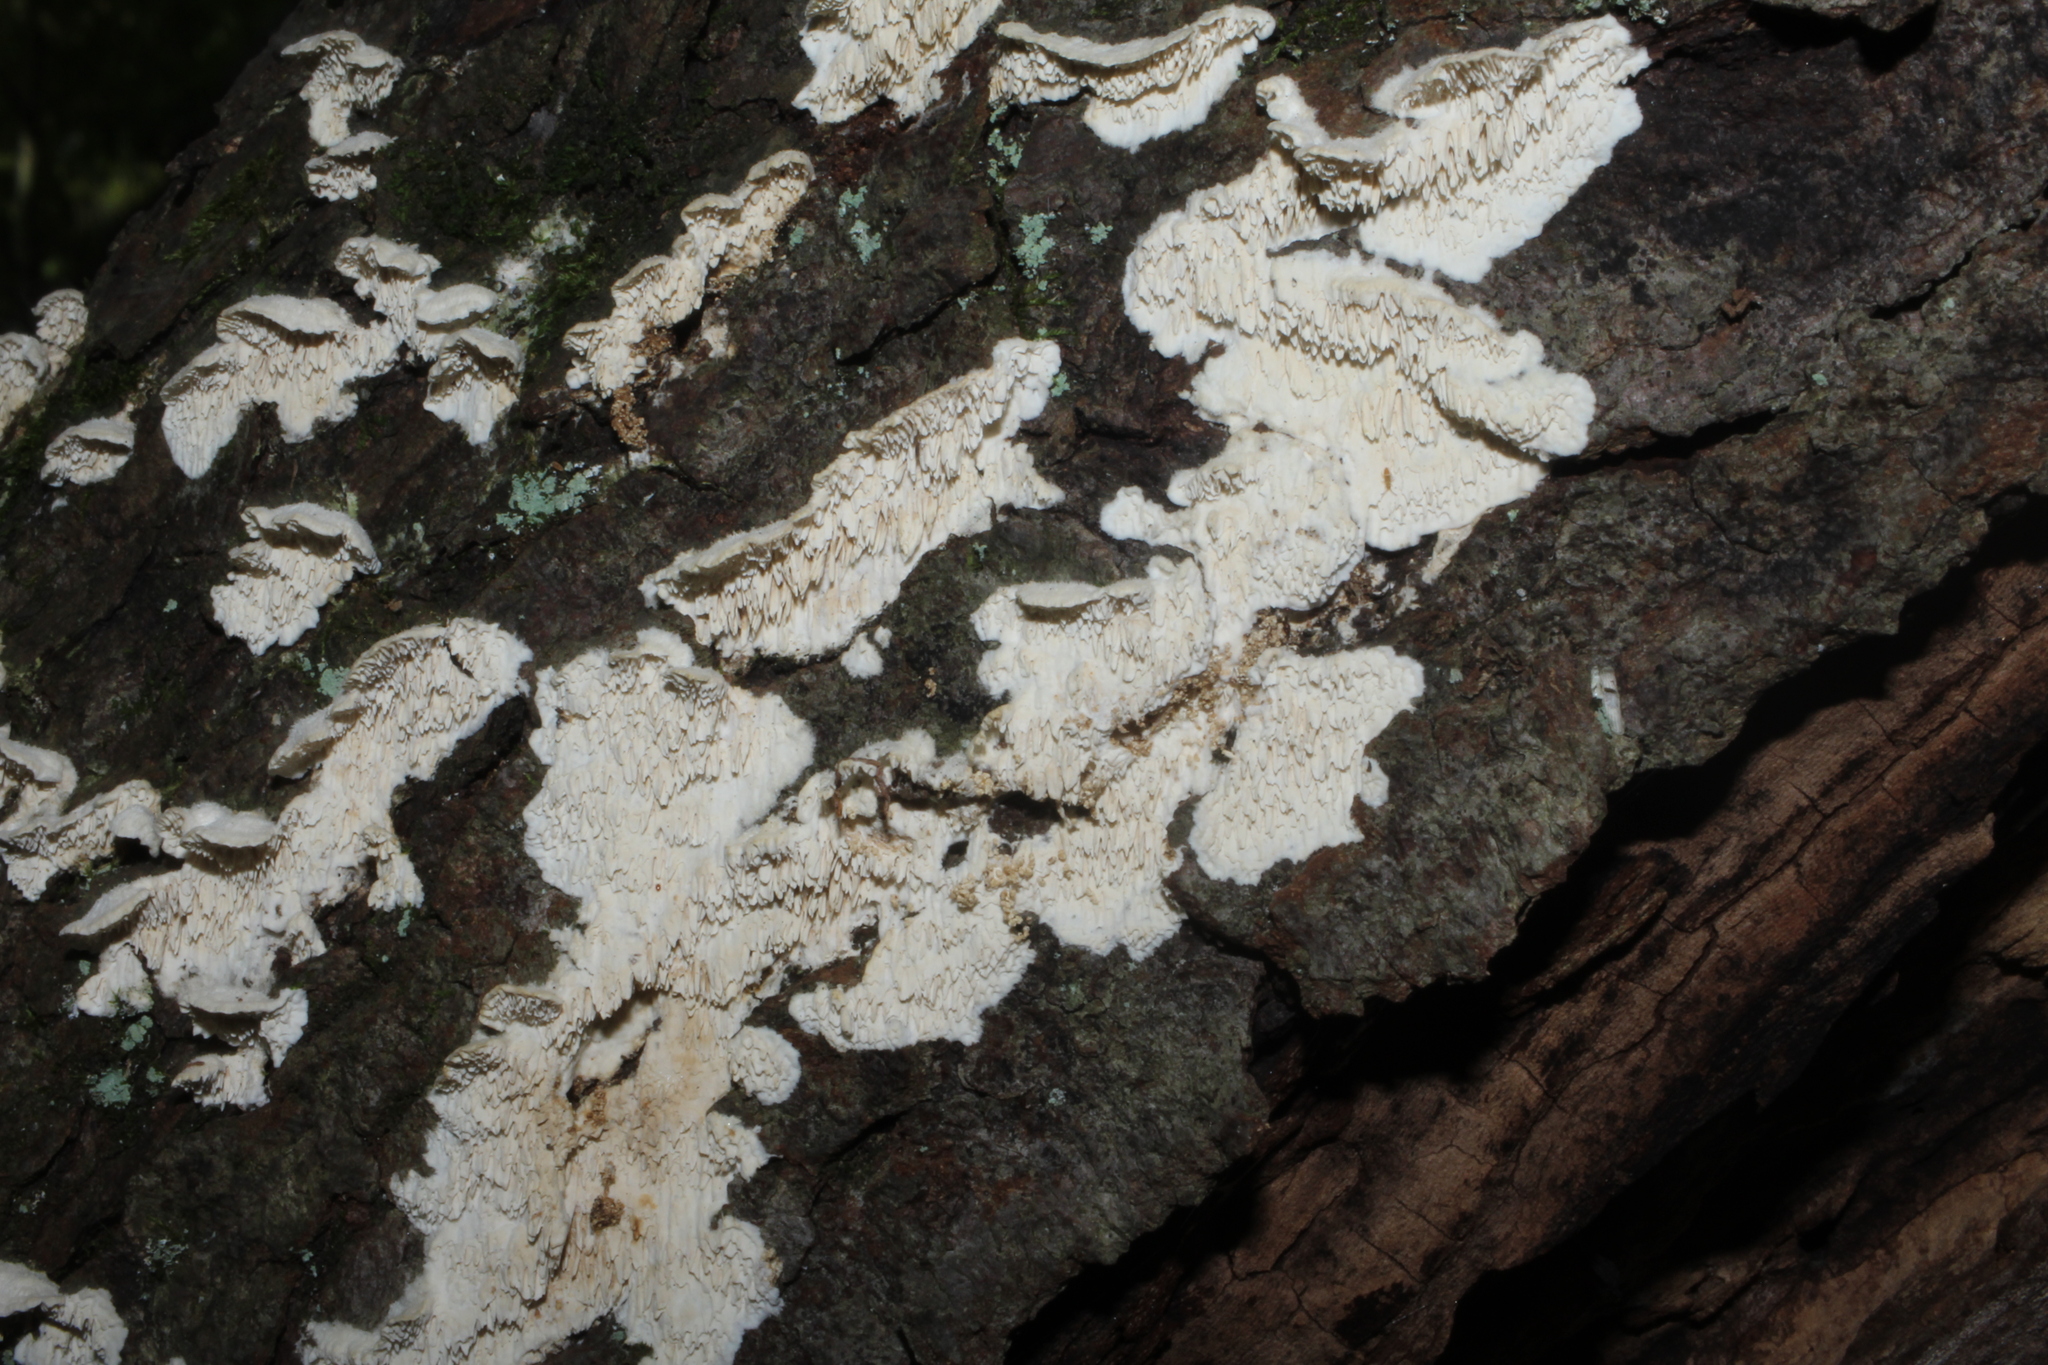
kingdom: Fungi
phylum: Basidiomycota
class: Agaricomycetes
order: Polyporales
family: Irpicaceae
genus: Irpex
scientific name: Irpex lacteus
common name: Milk-white toothed polypore
